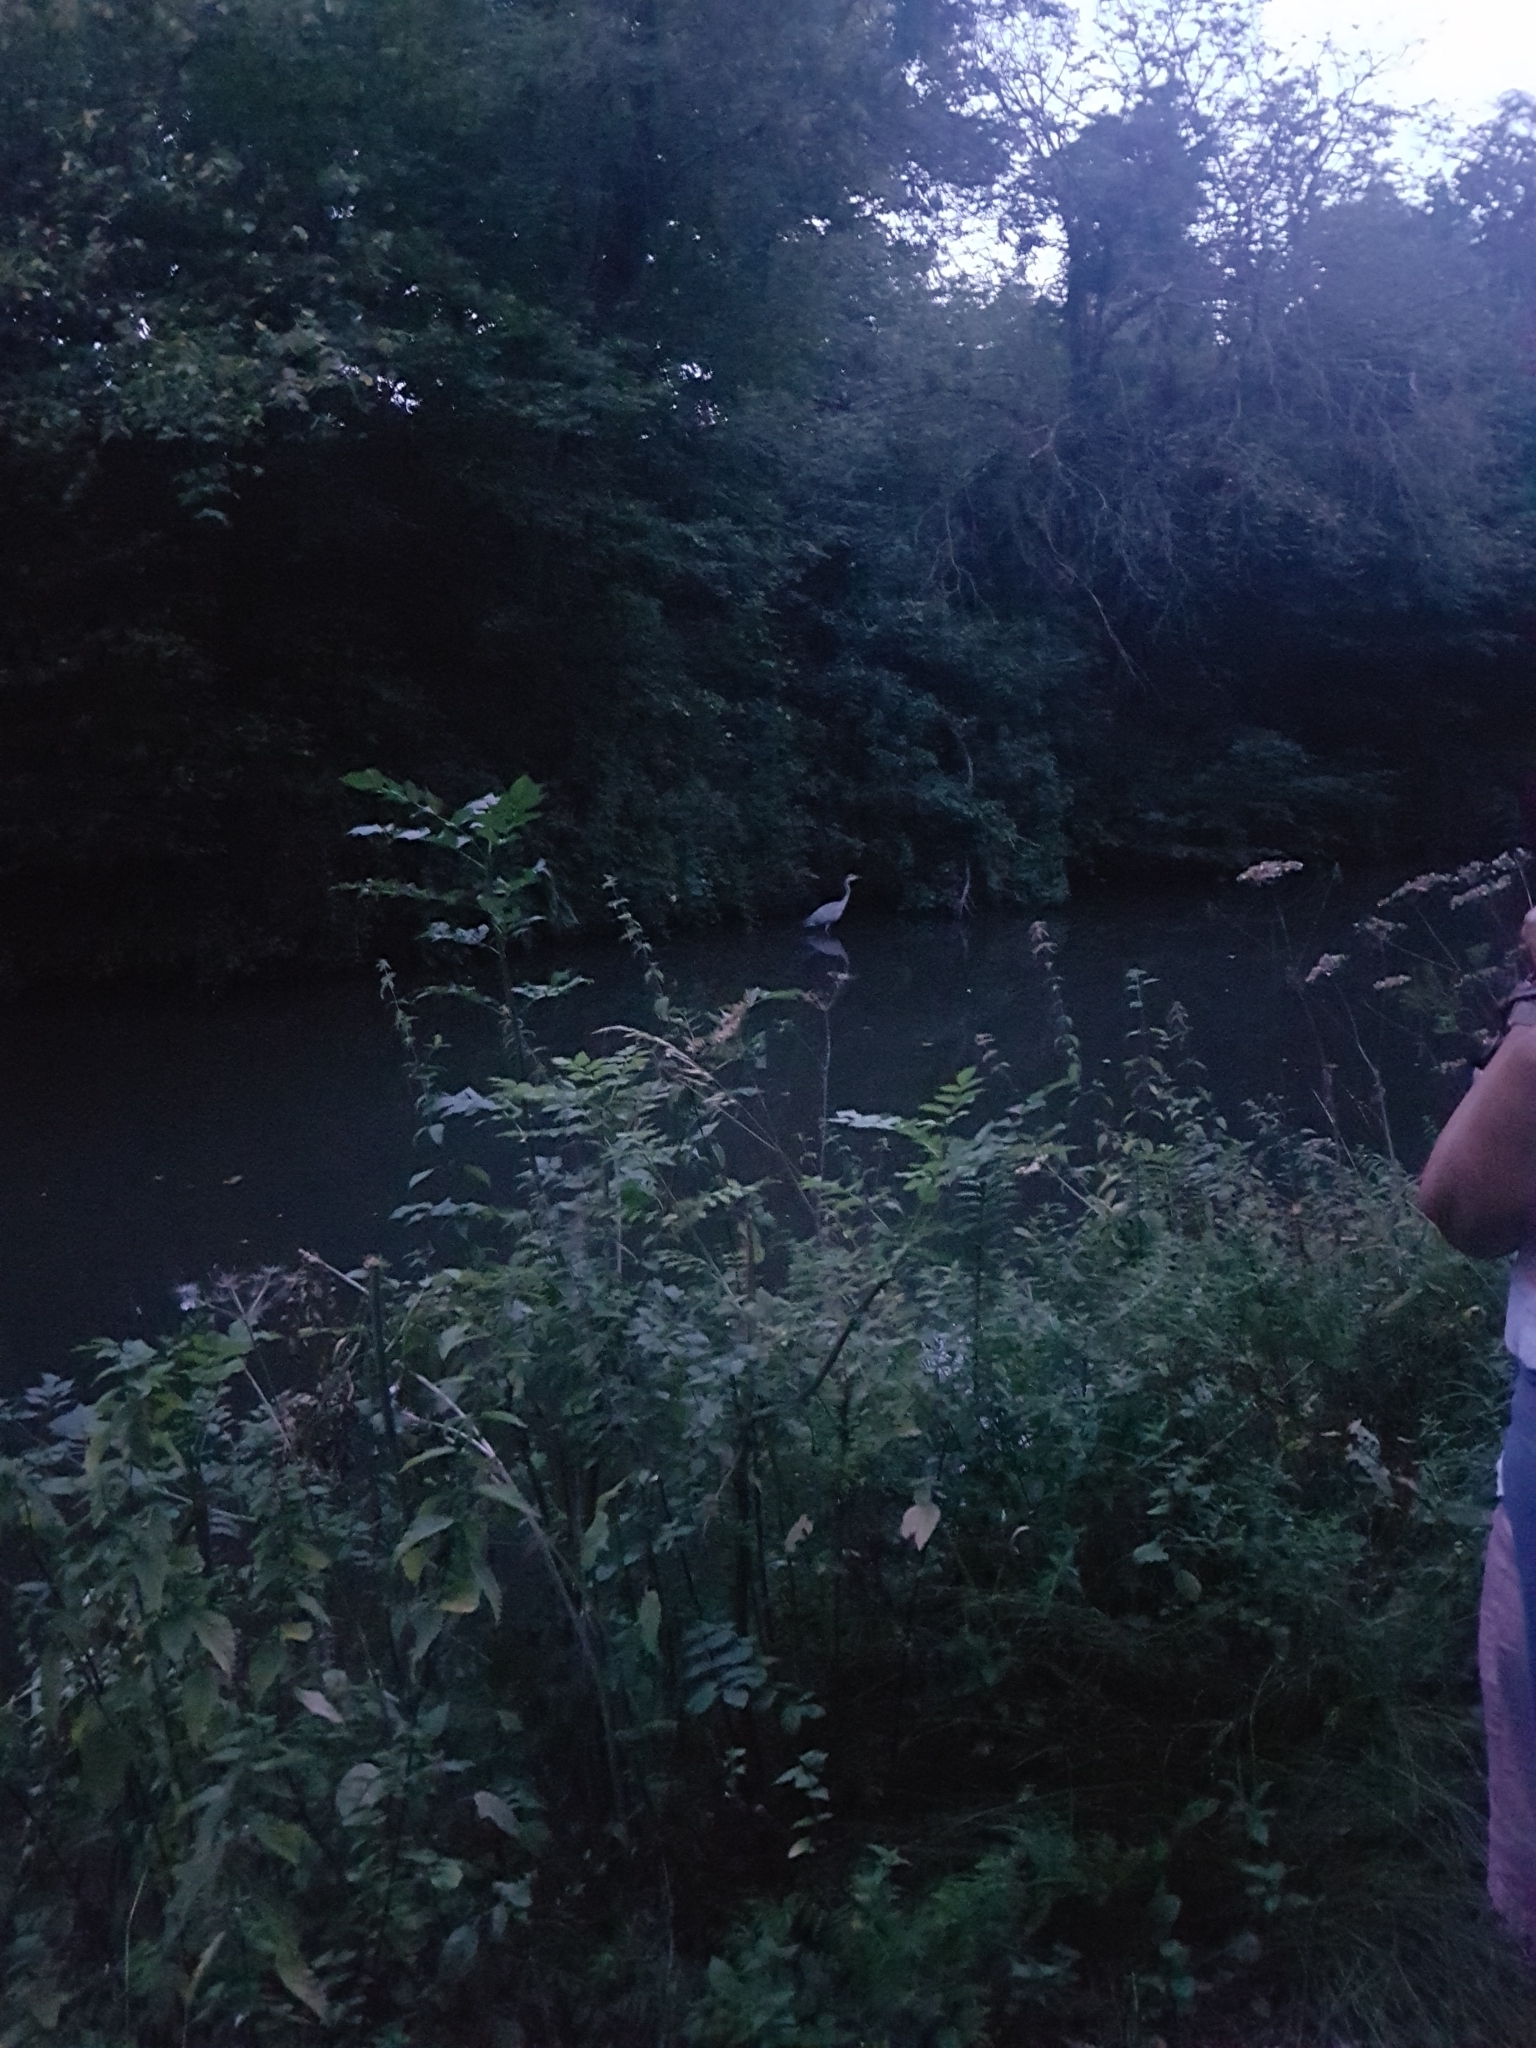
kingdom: Animalia
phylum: Chordata
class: Aves
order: Pelecaniformes
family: Ardeidae
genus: Ardea
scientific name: Ardea cinerea
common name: Grey heron
